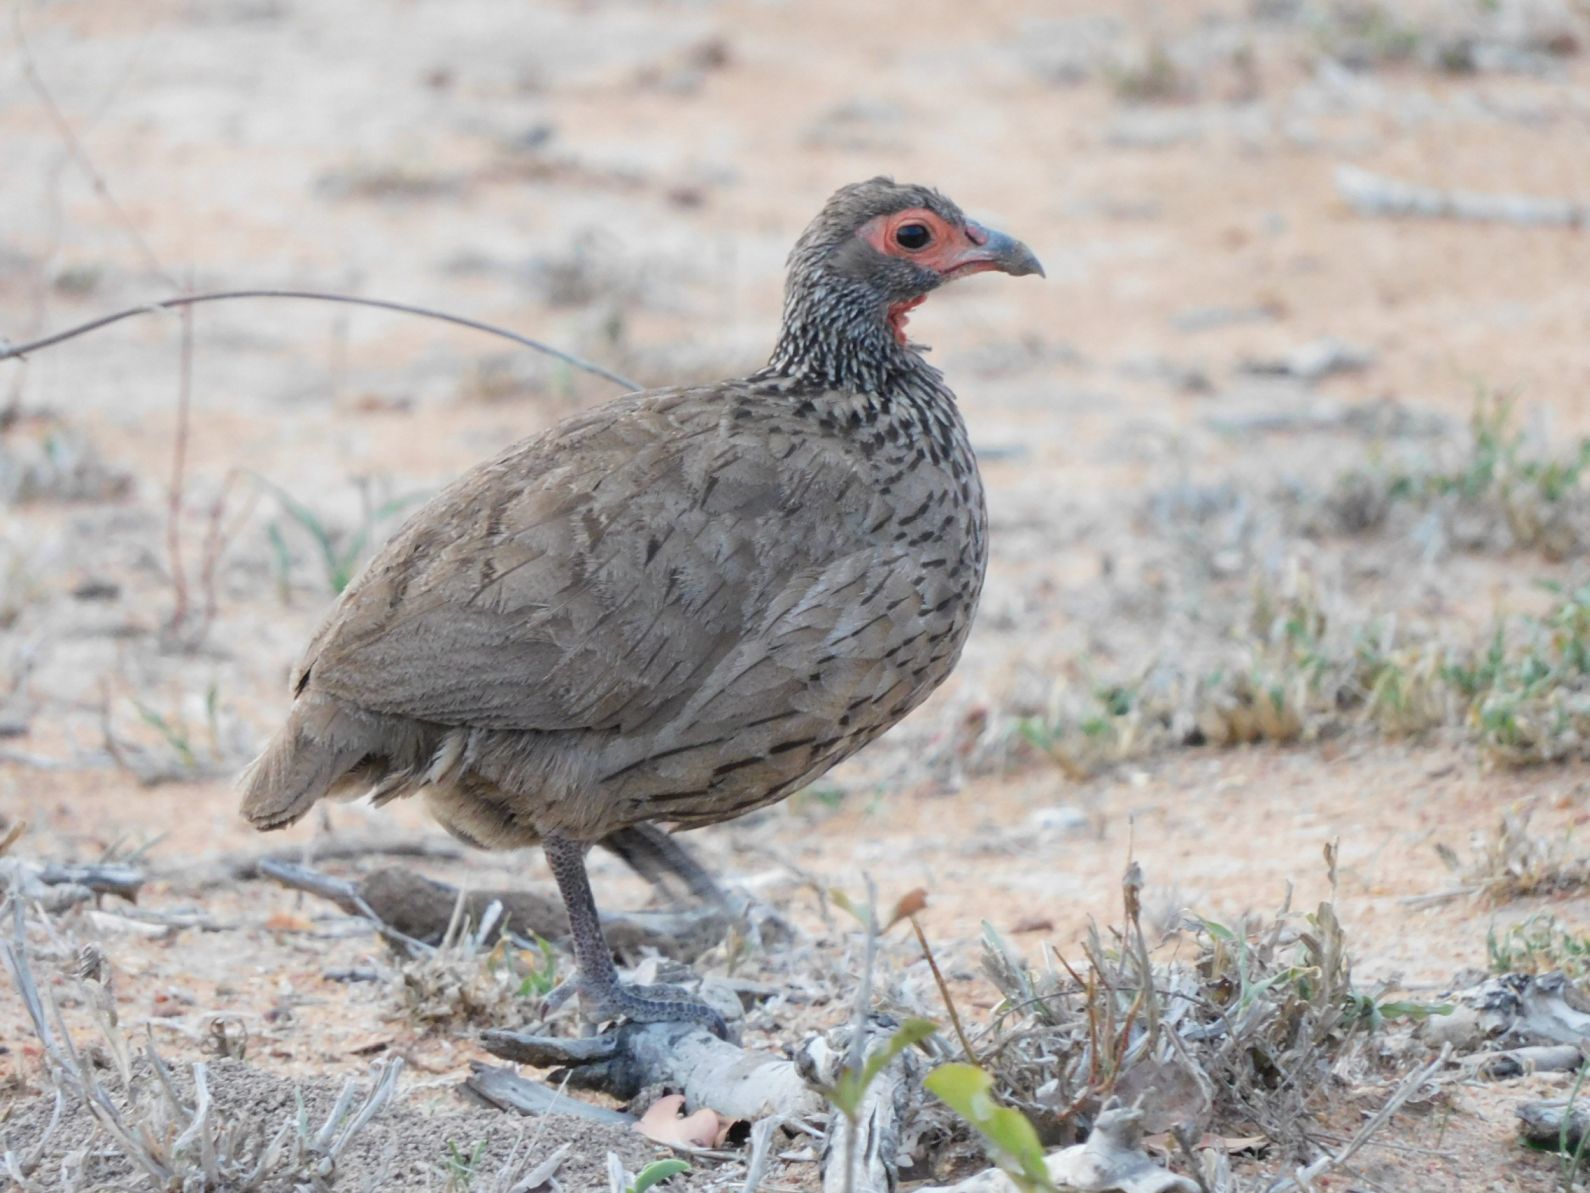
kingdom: Animalia
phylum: Chordata
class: Aves
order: Galliformes
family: Phasianidae
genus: Pternistis
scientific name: Pternistis swainsonii
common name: Swainson's spurfowl
